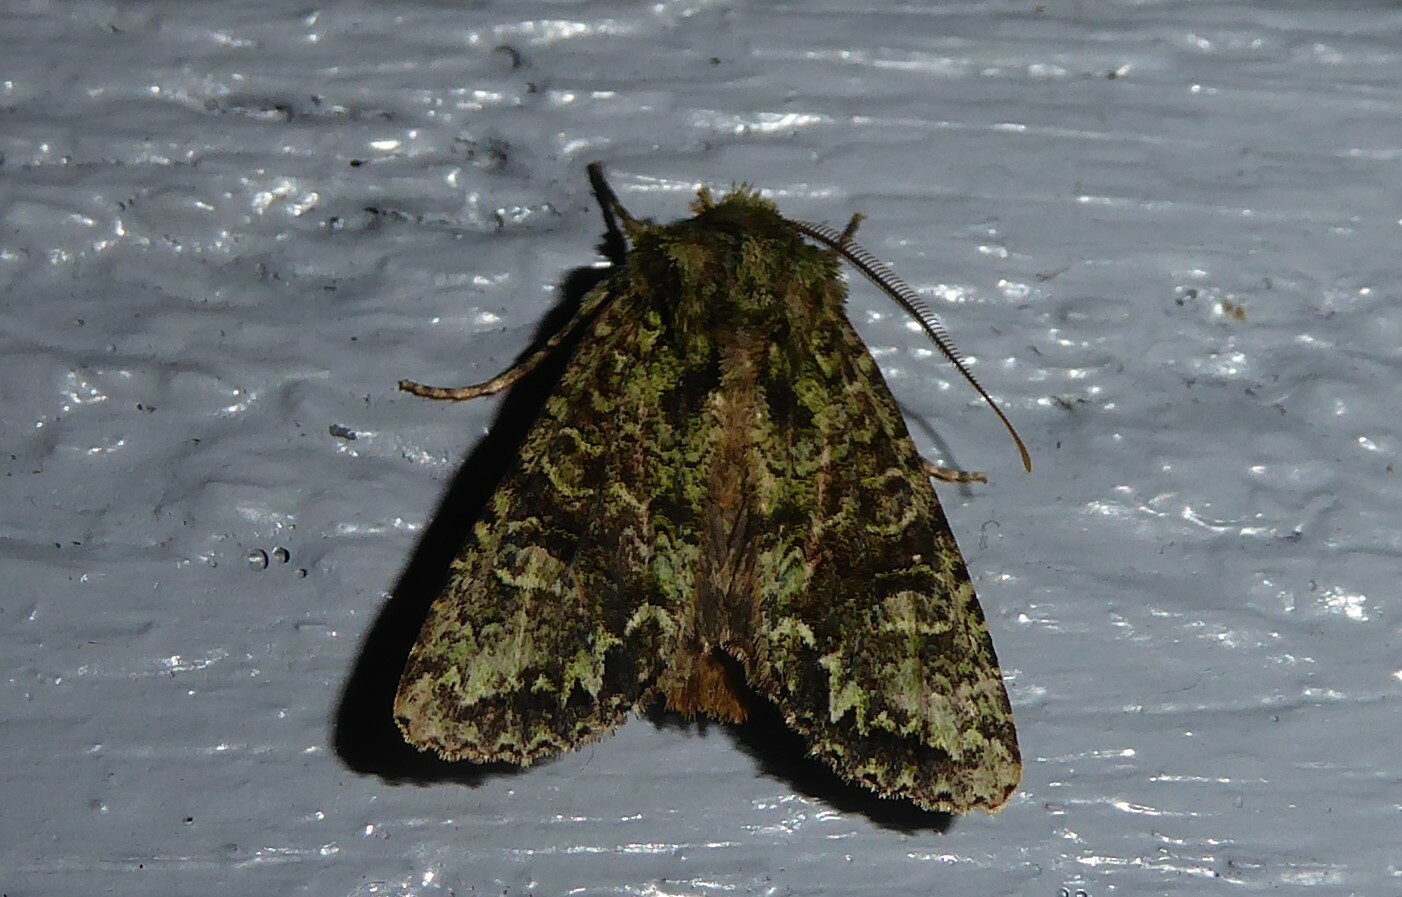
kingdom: Animalia
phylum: Arthropoda
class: Insecta
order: Lepidoptera
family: Noctuidae
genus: Ichneutica
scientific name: Ichneutica
